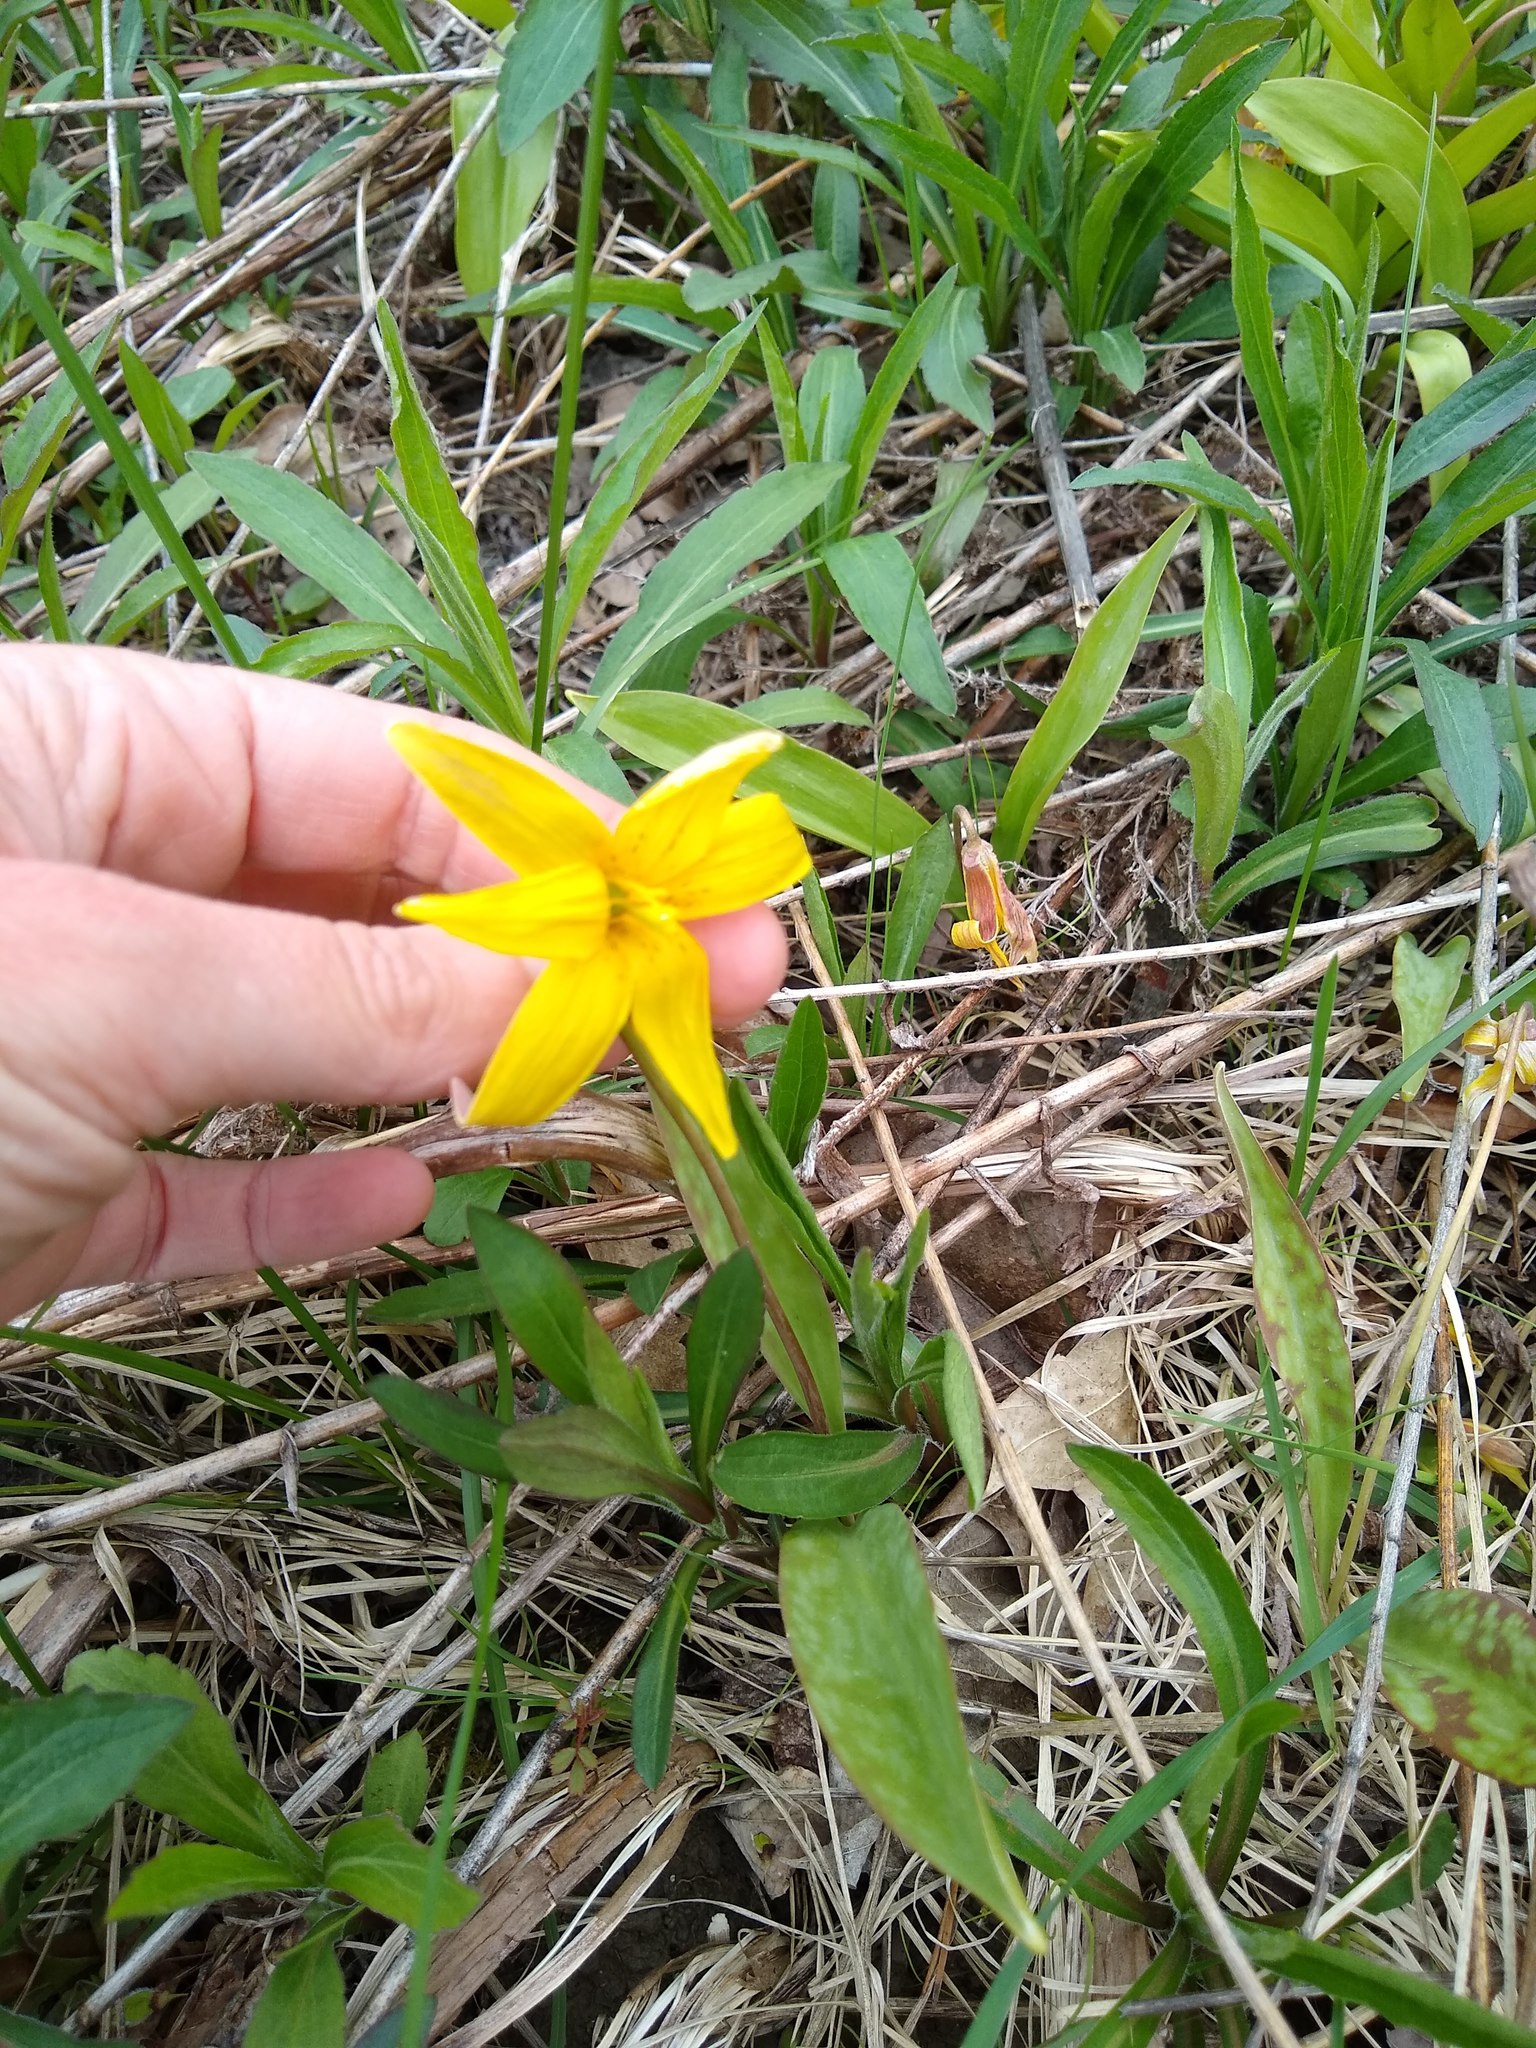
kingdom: Plantae
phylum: Tracheophyta
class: Liliopsida
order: Liliales
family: Liliaceae
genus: Erythronium
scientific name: Erythronium americanum
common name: Yellow adder's-tongue
